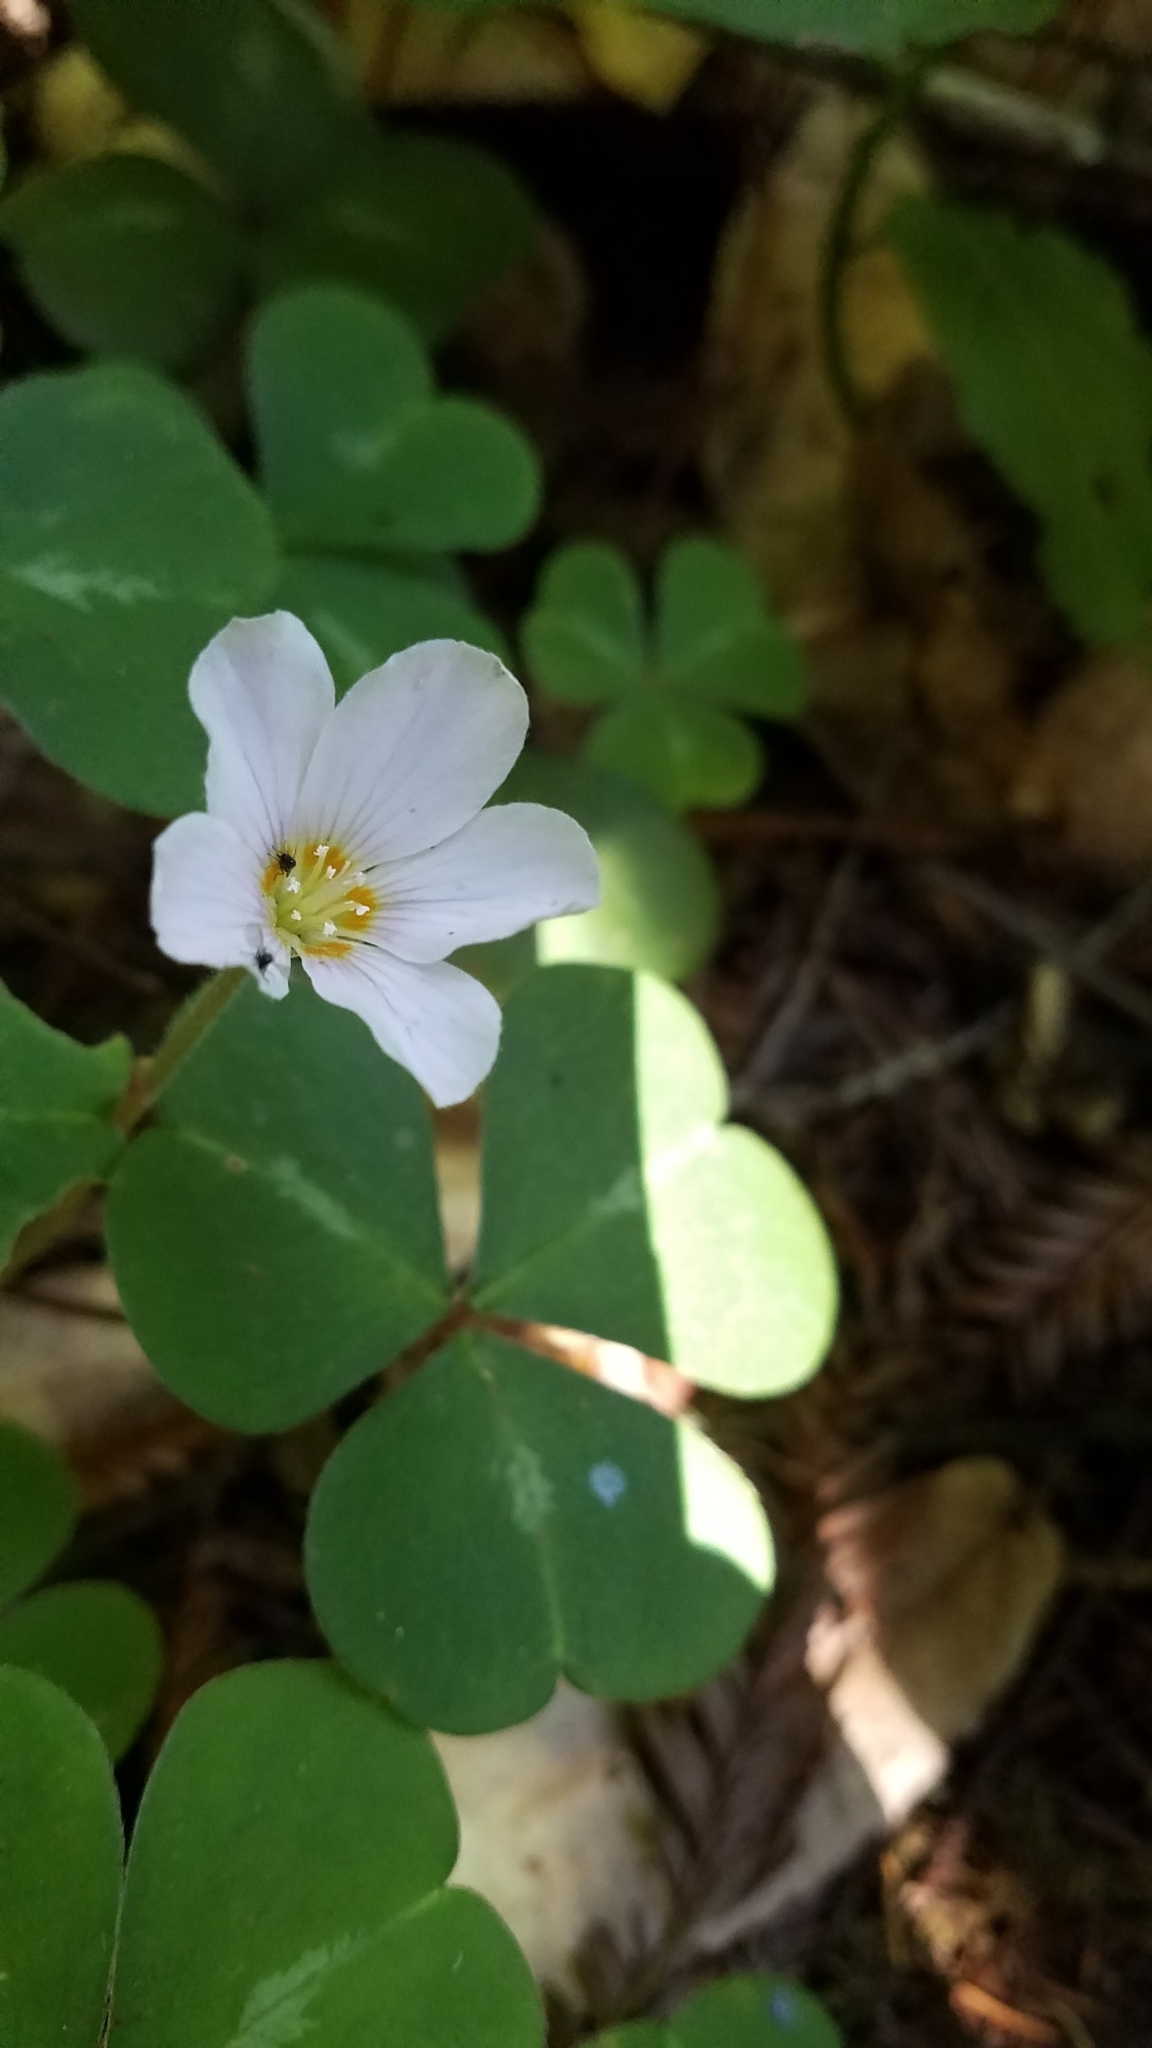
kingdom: Plantae
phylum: Tracheophyta
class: Magnoliopsida
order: Oxalidales
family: Oxalidaceae
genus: Oxalis
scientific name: Oxalis oregana
